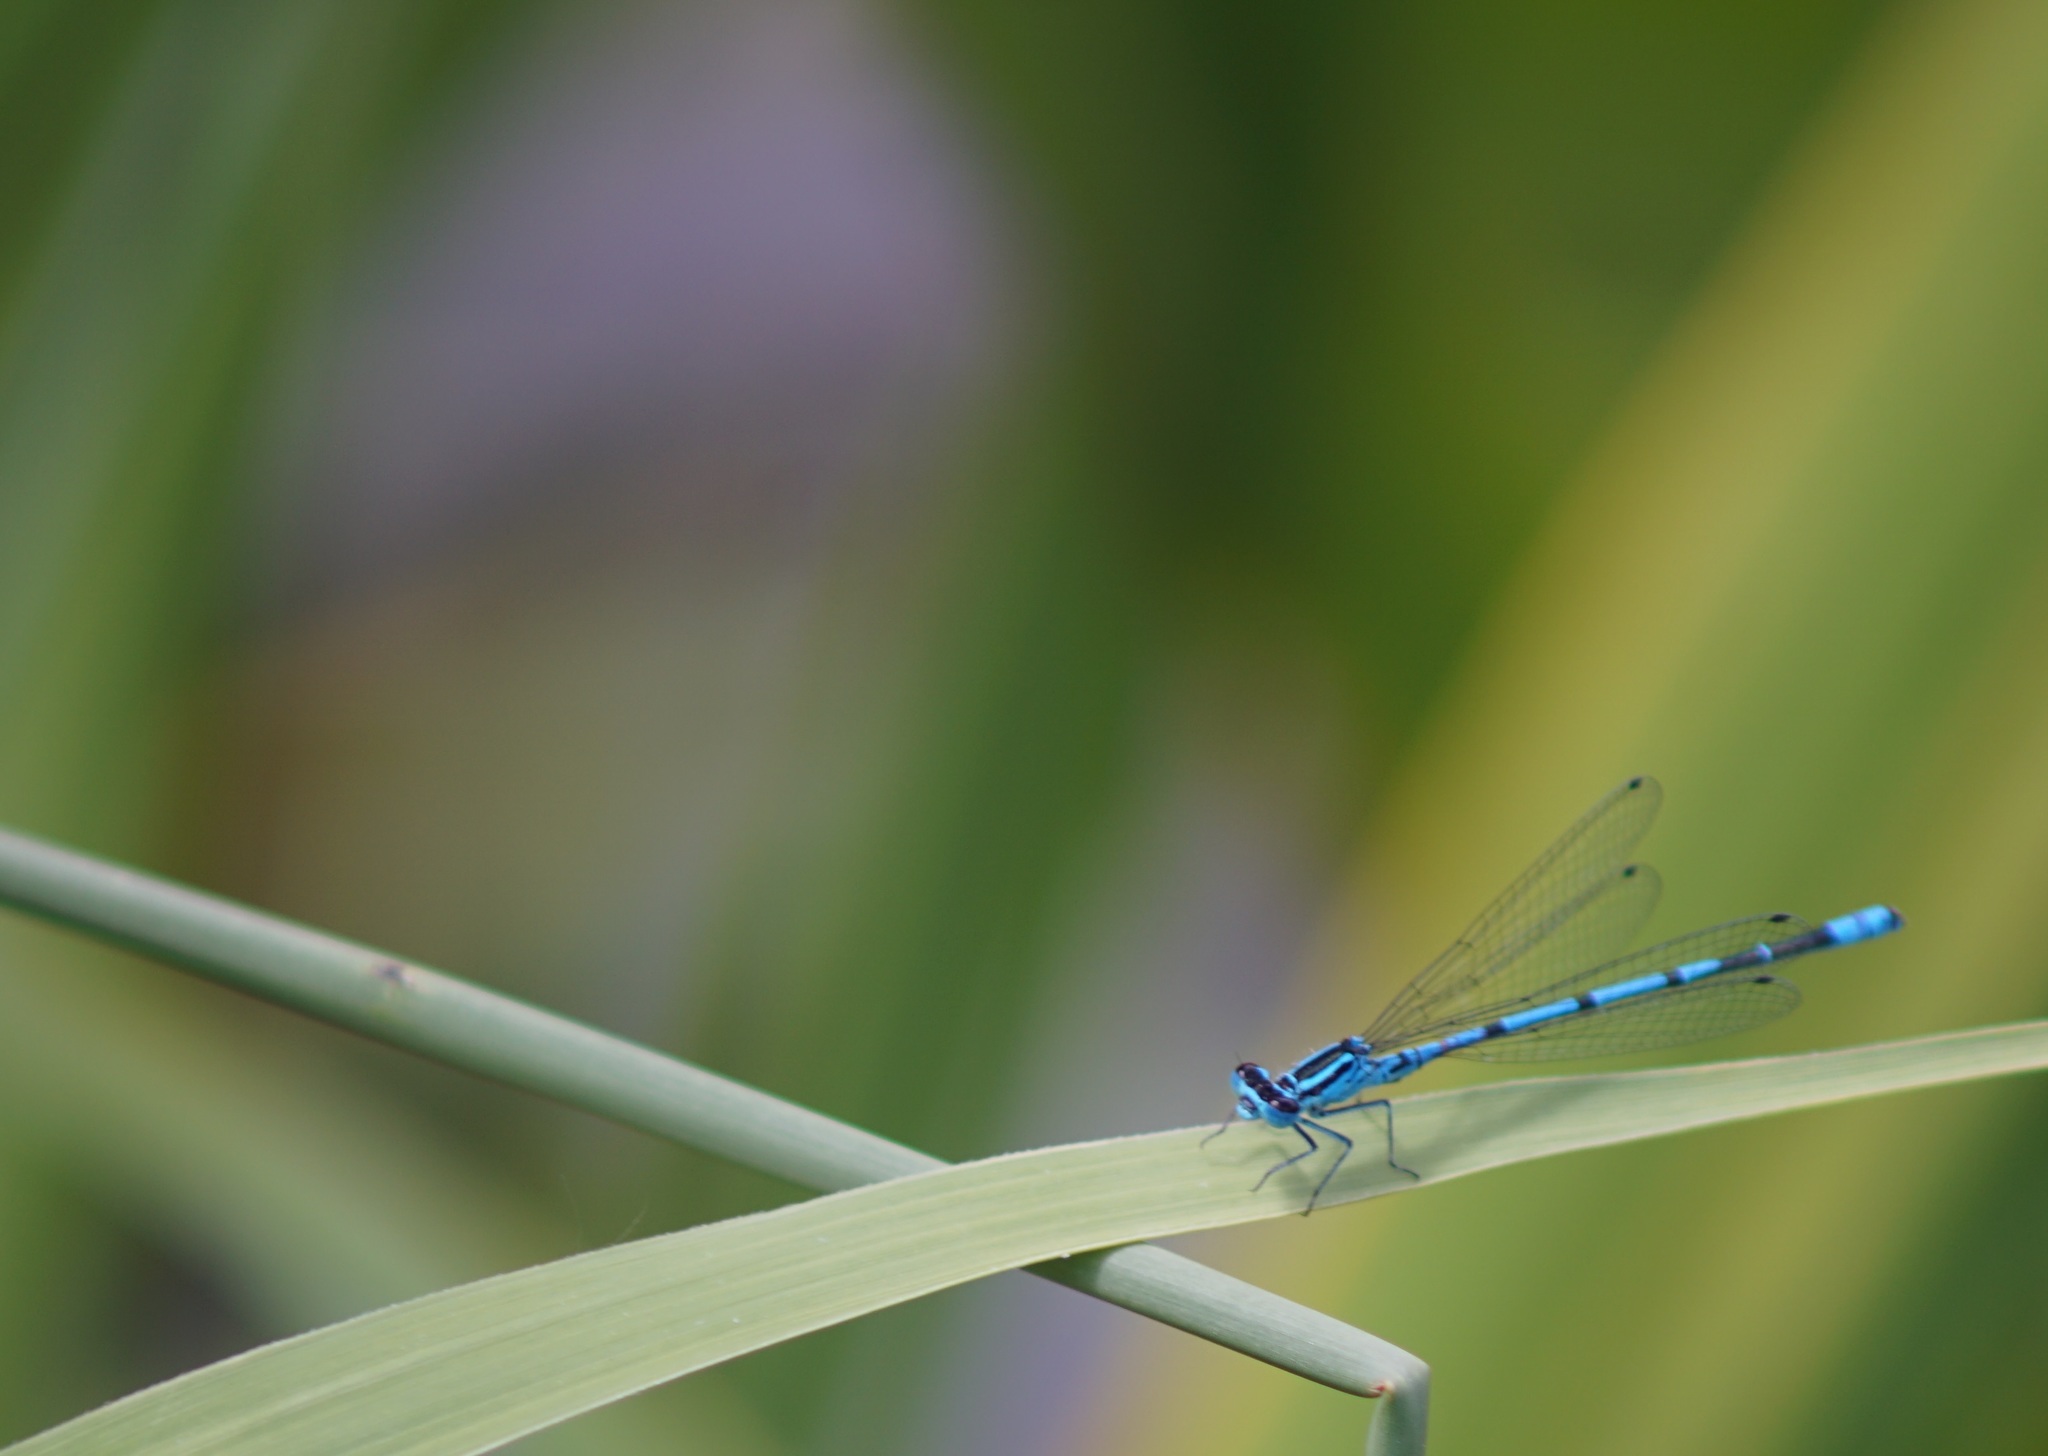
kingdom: Animalia
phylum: Arthropoda
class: Insecta
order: Odonata
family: Coenagrionidae
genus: Coenagrion
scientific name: Coenagrion puella
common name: Azure damselfly
